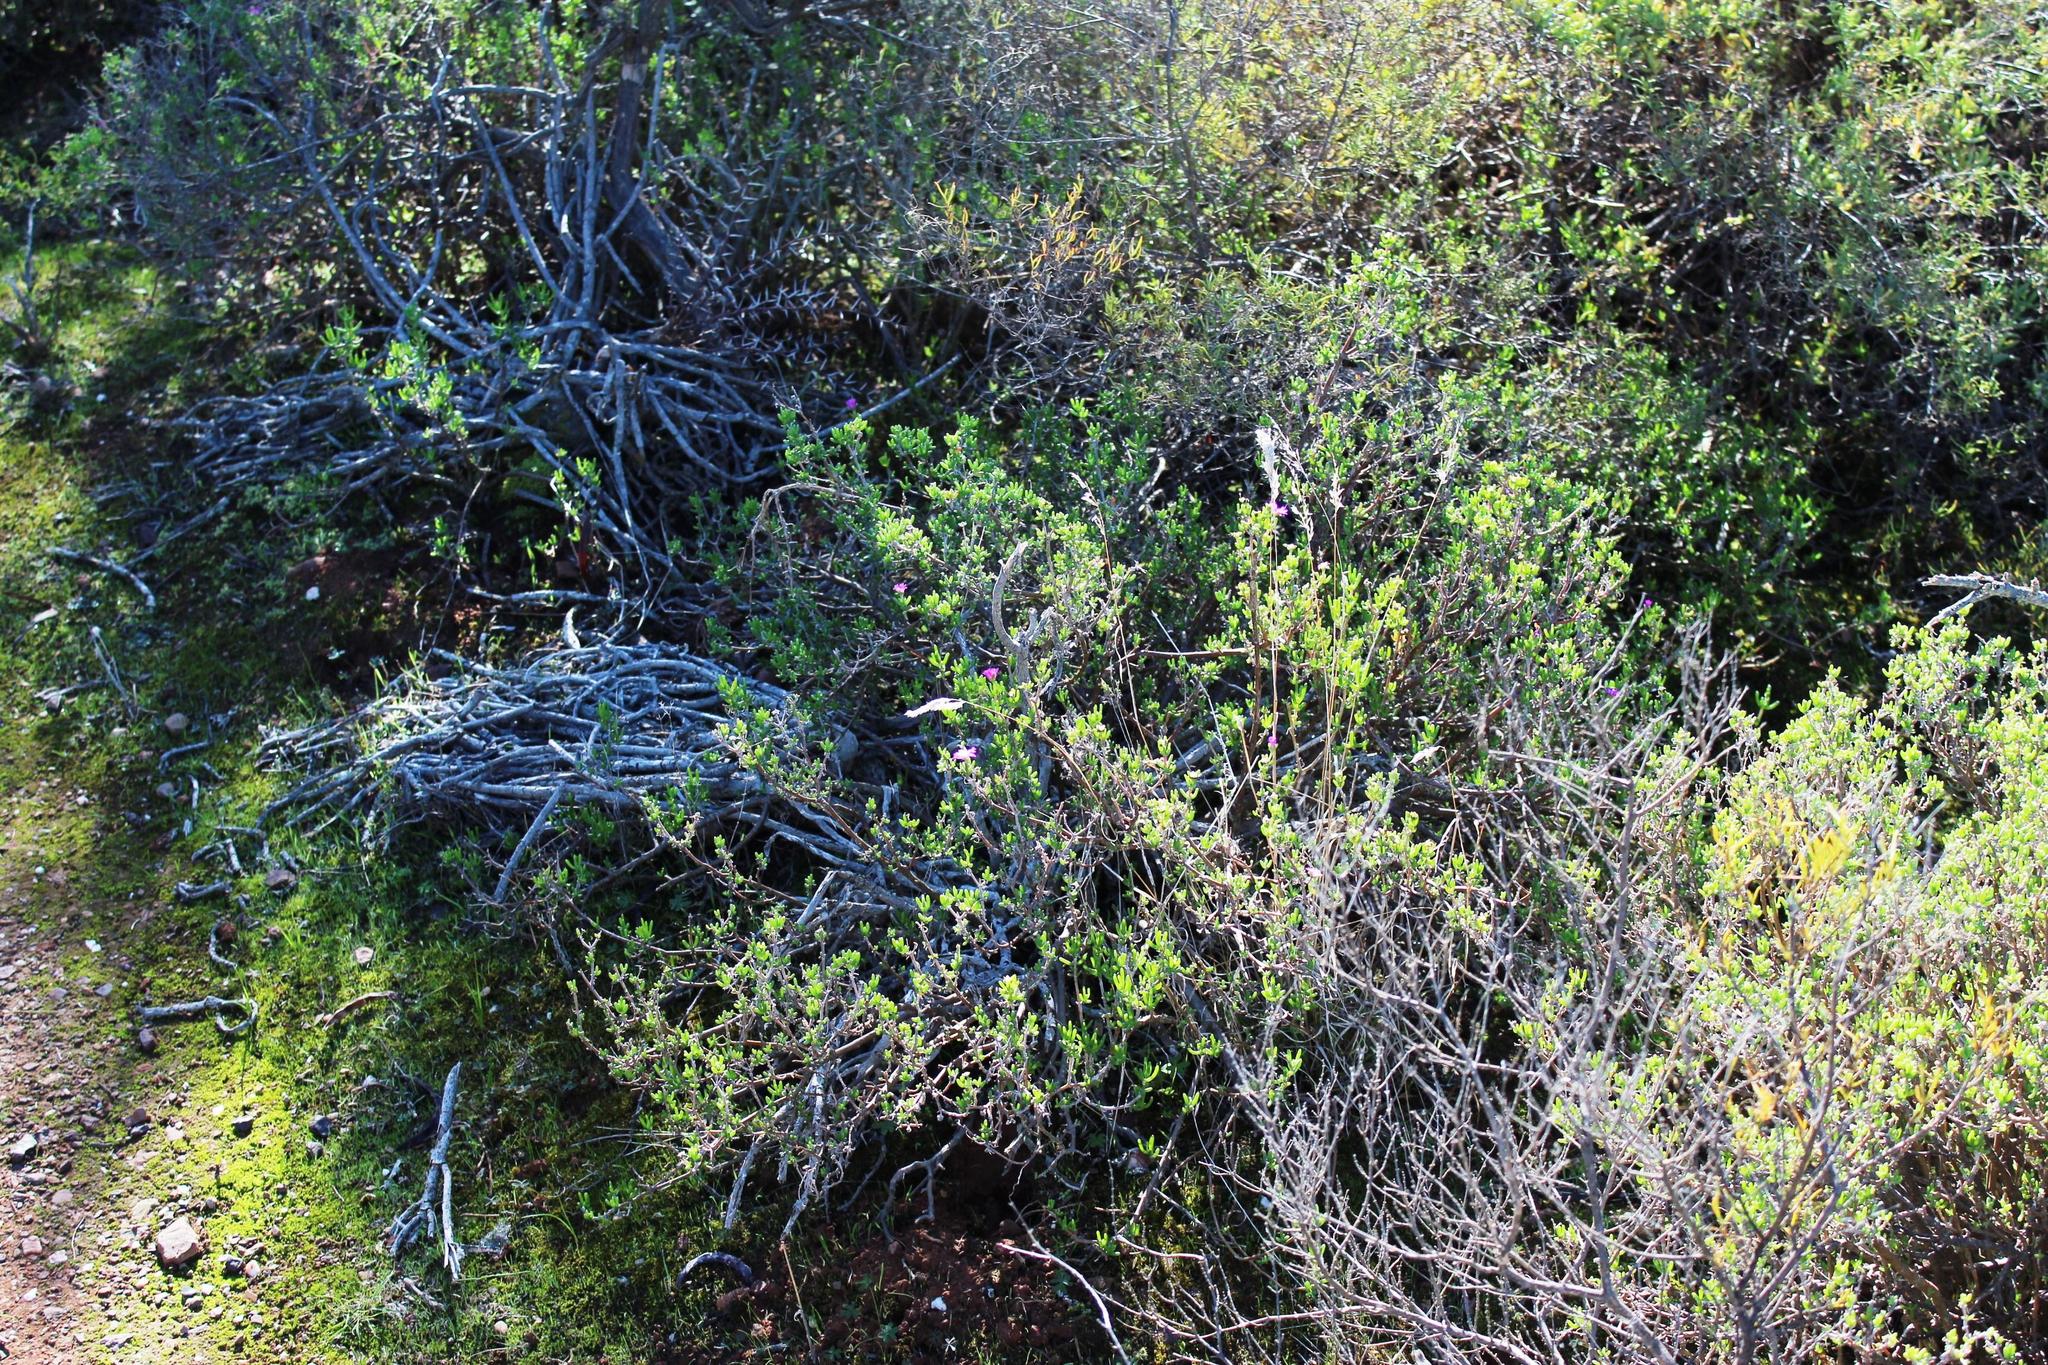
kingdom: Plantae
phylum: Tracheophyta
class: Magnoliopsida
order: Caryophyllales
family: Aizoaceae
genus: Delosperma
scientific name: Delosperma pageanum
